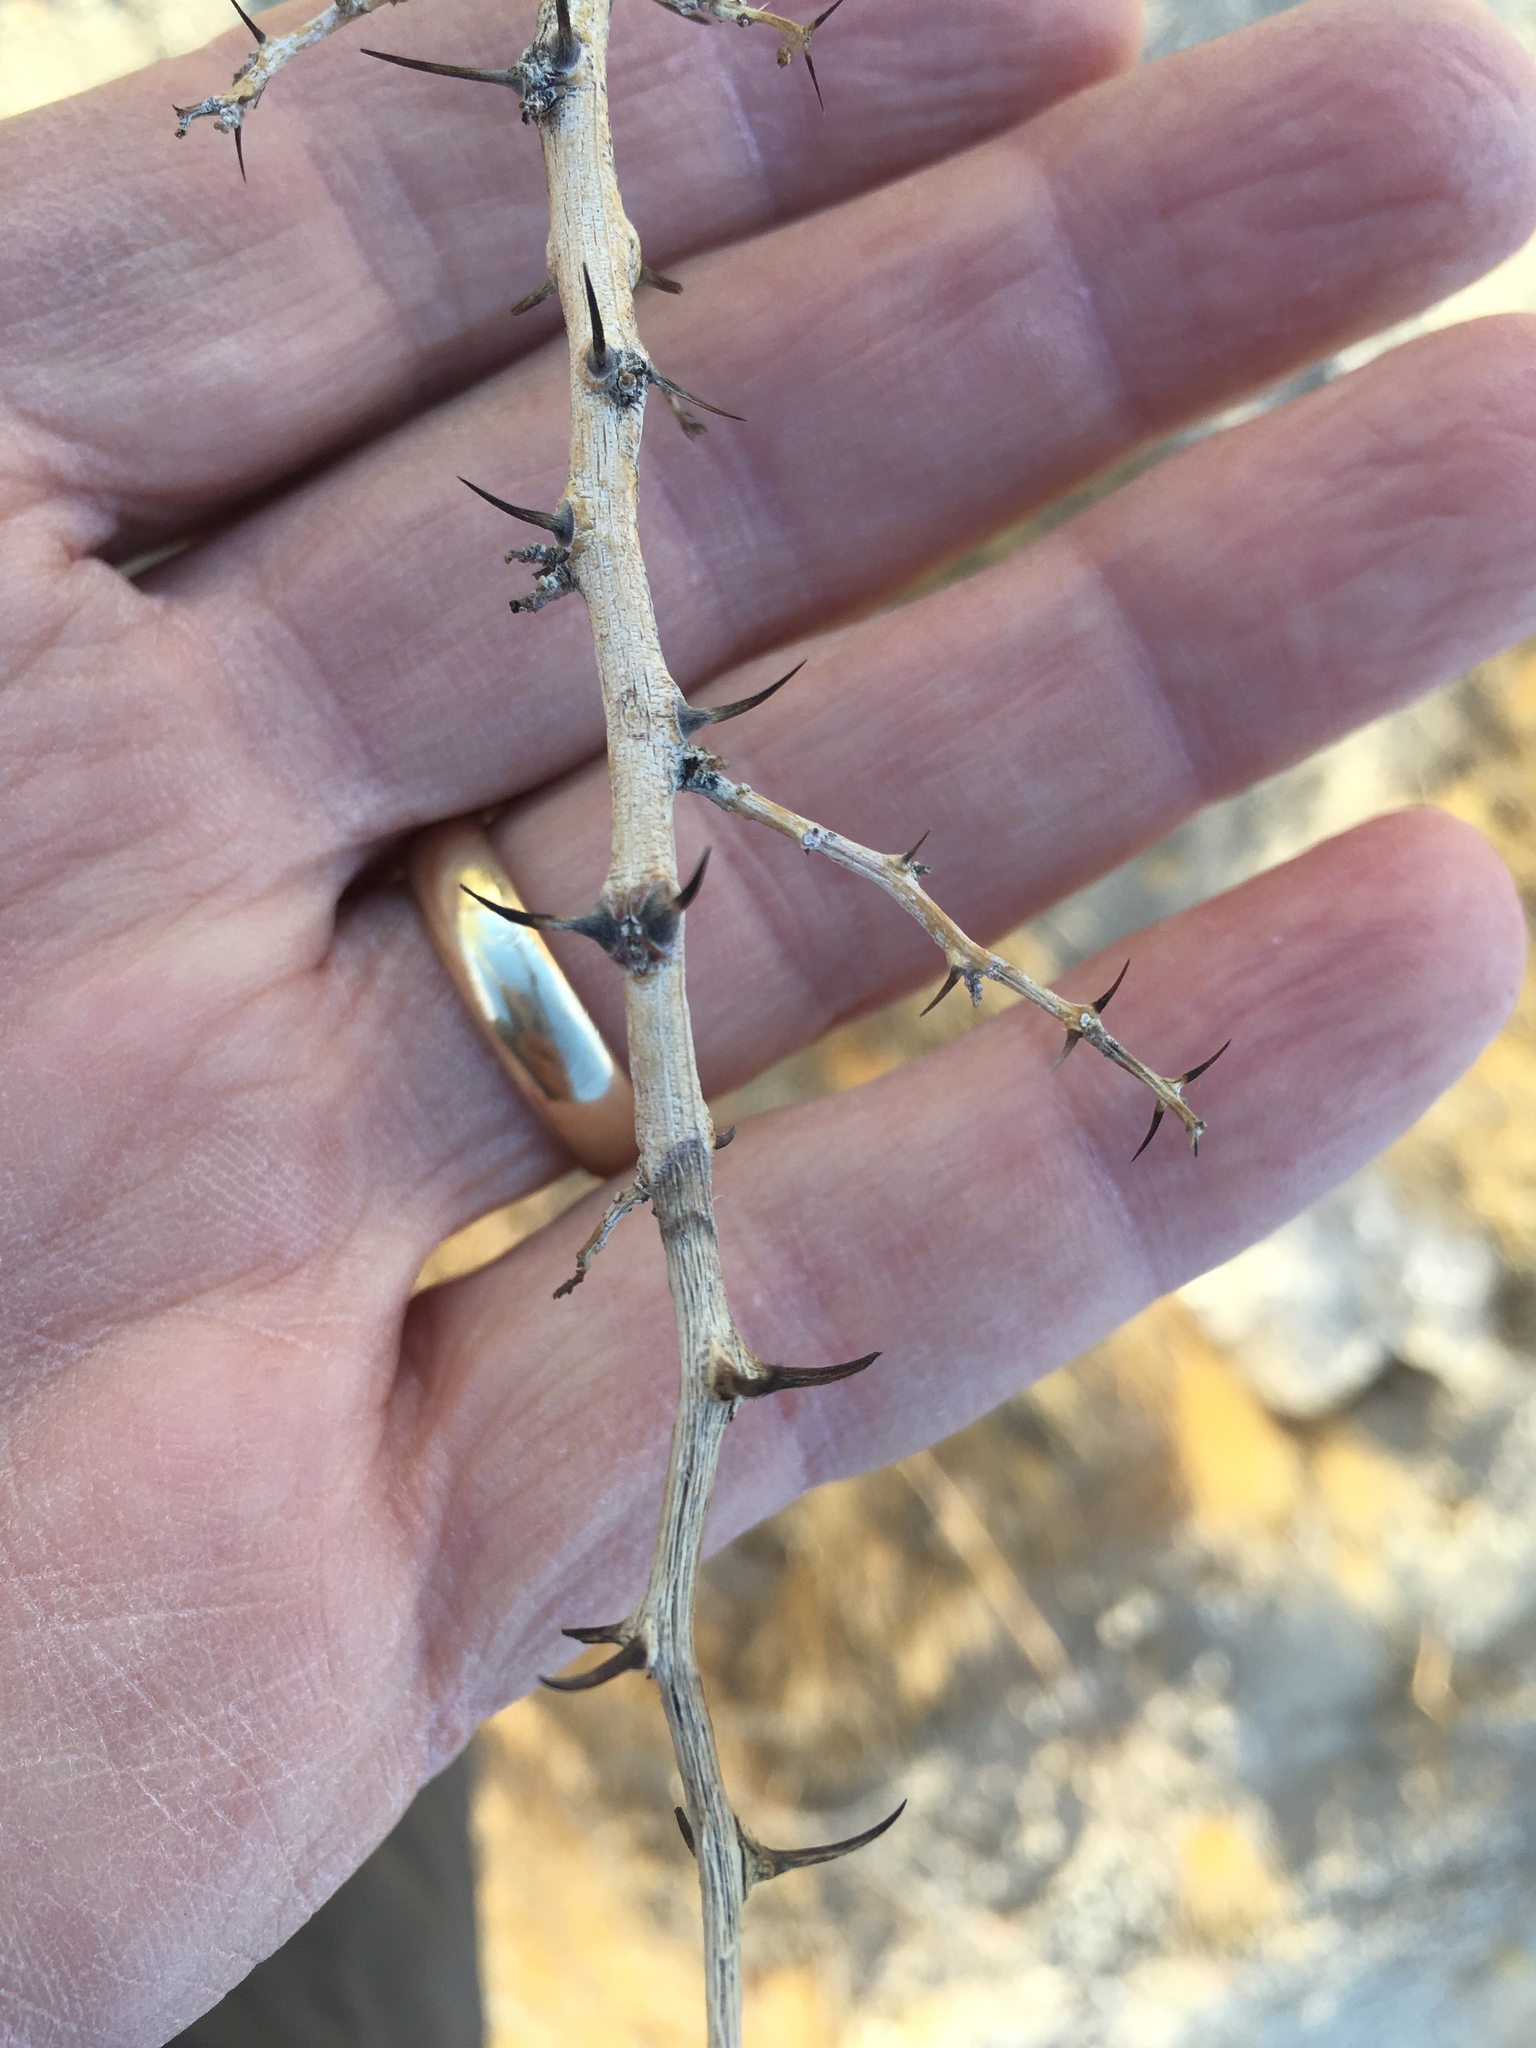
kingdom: Plantae
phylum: Tracheophyta
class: Magnoliopsida
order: Fabales
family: Fabaceae
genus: Olneya
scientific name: Olneya tesota
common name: Desert ironwood
